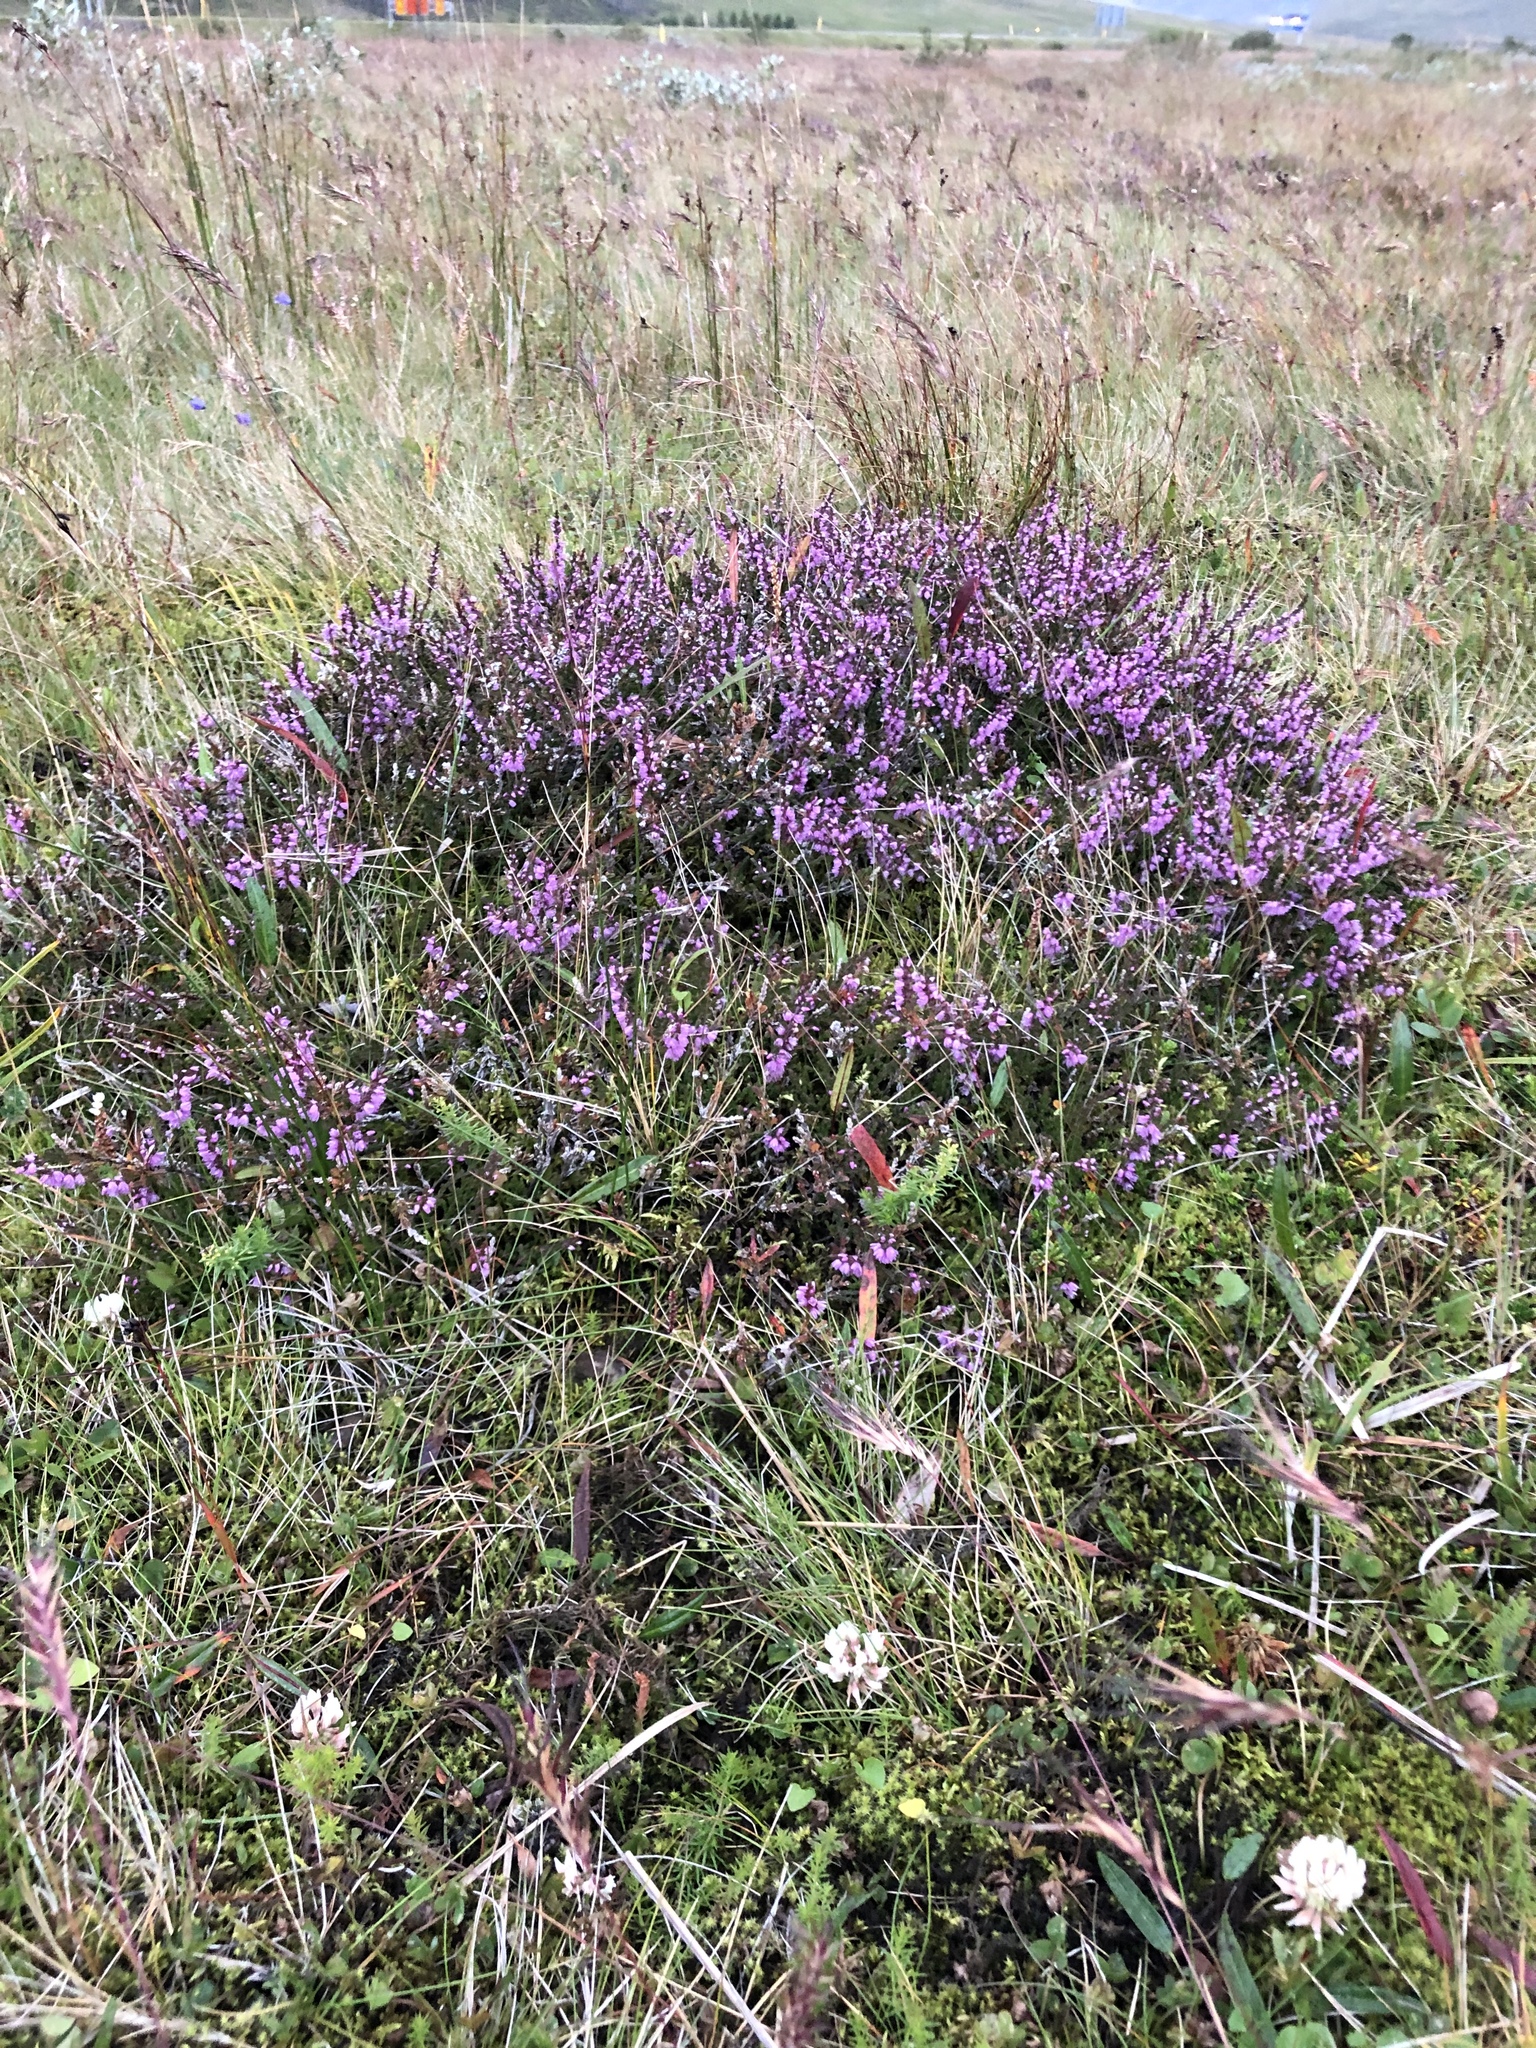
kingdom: Plantae
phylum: Tracheophyta
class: Magnoliopsida
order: Ericales
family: Ericaceae
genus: Calluna
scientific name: Calluna vulgaris
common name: Heather
